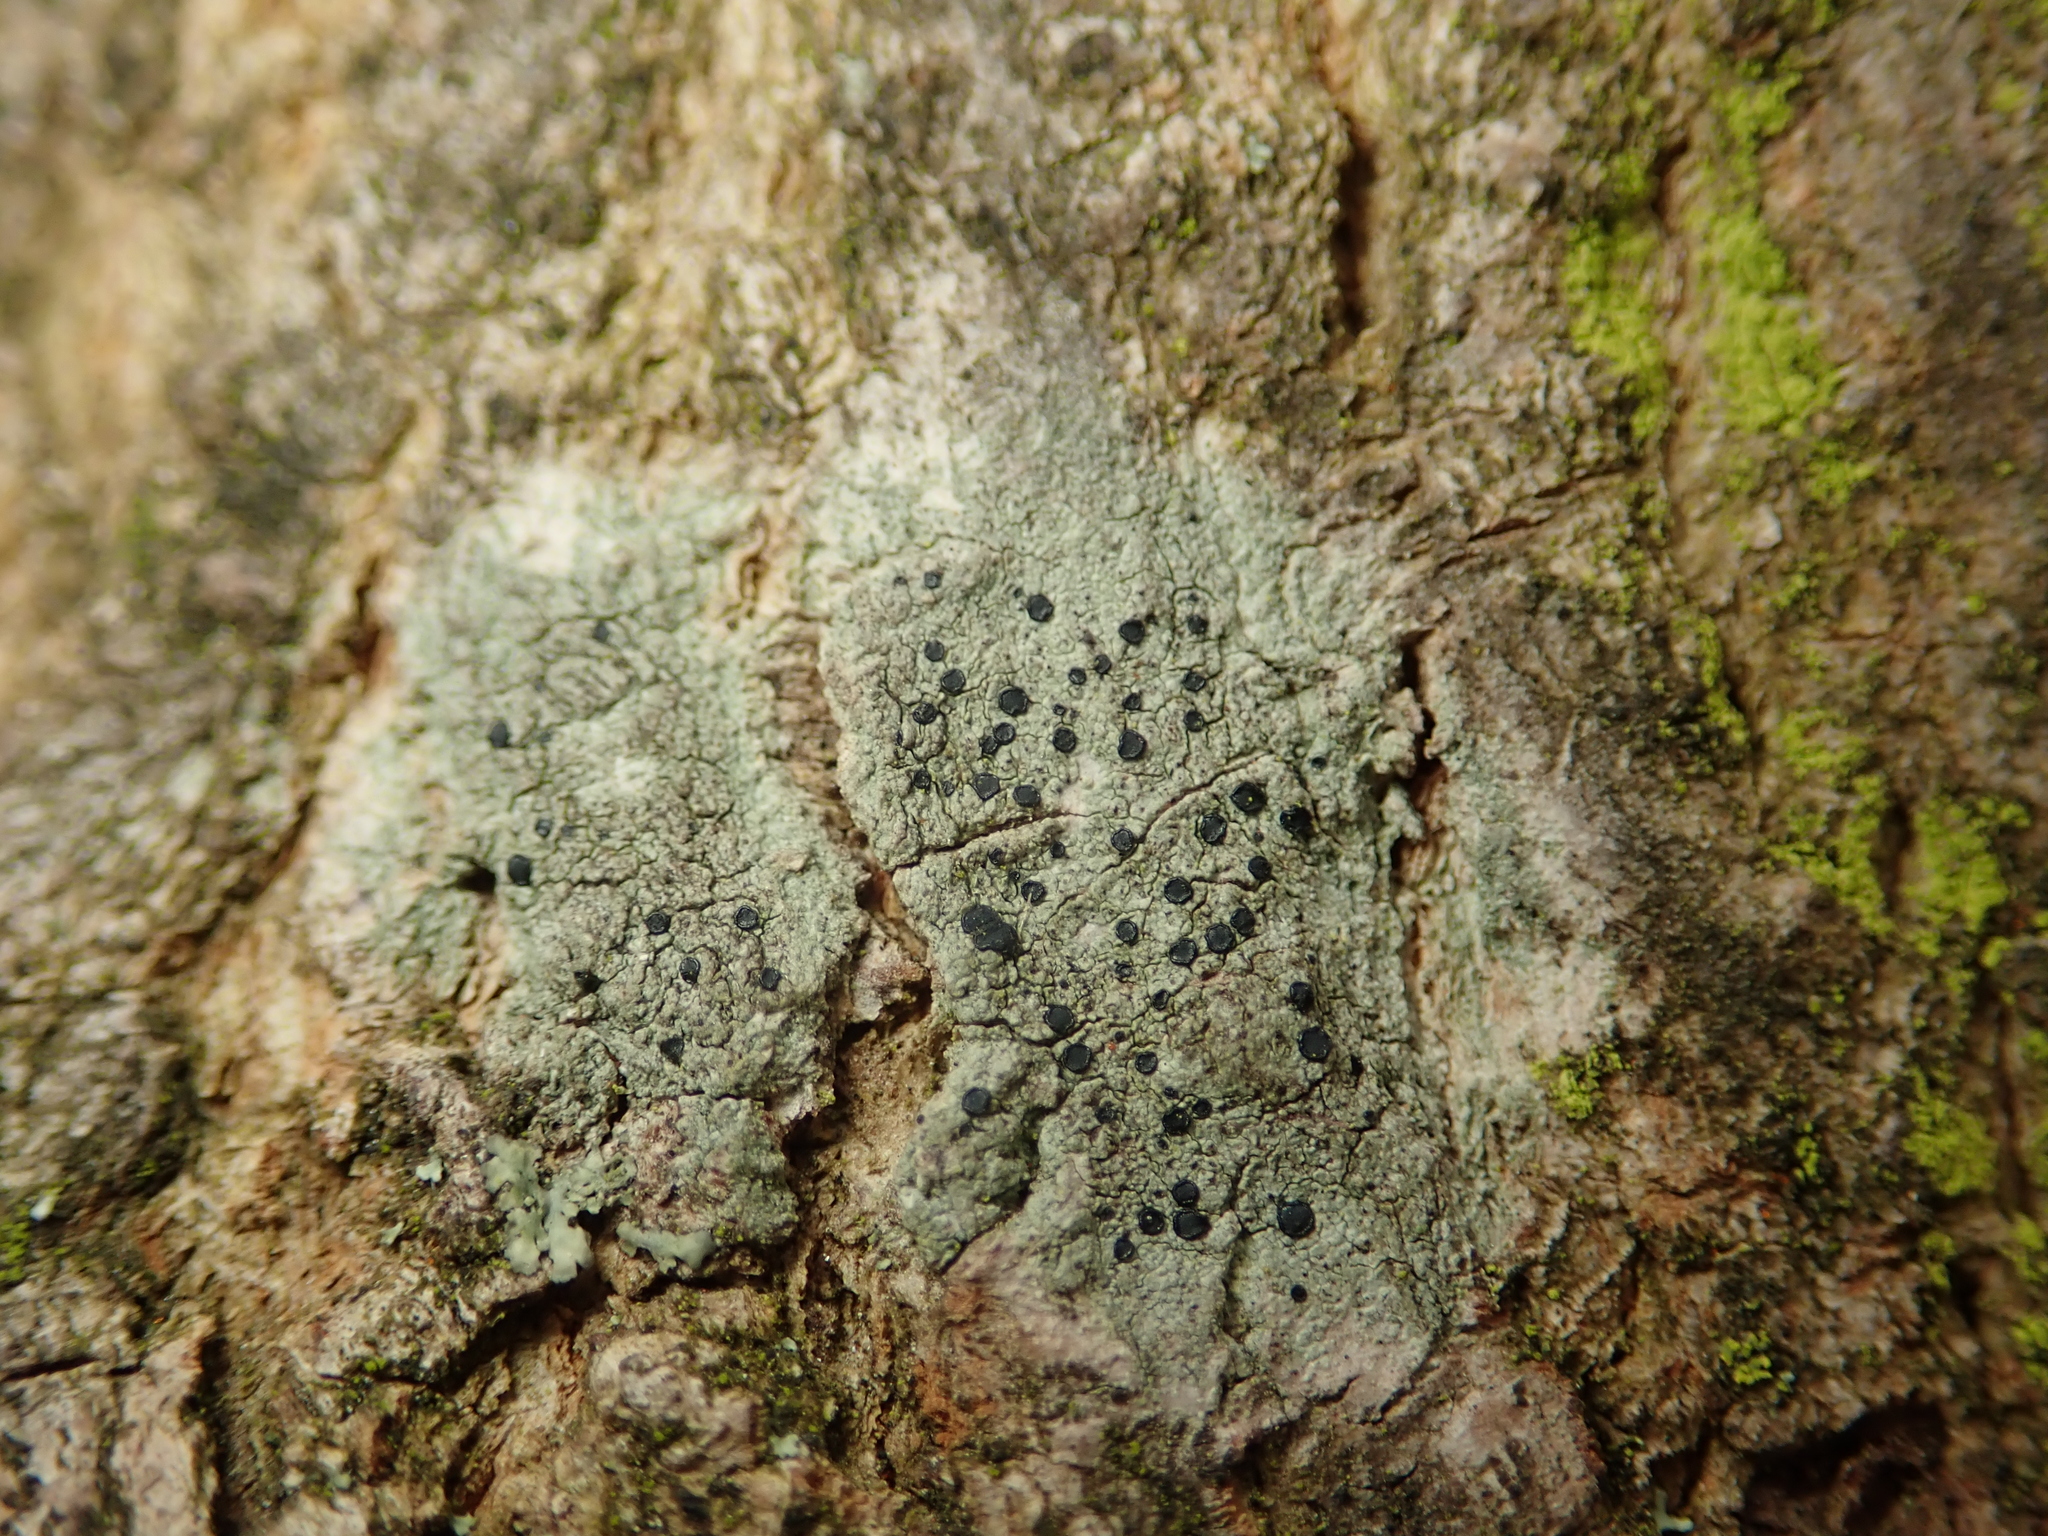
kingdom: Fungi
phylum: Ascomycota
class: Lecanoromycetes
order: Lecanorales
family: Lecanoraceae
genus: Lecidella
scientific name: Lecidella elaeochroma
